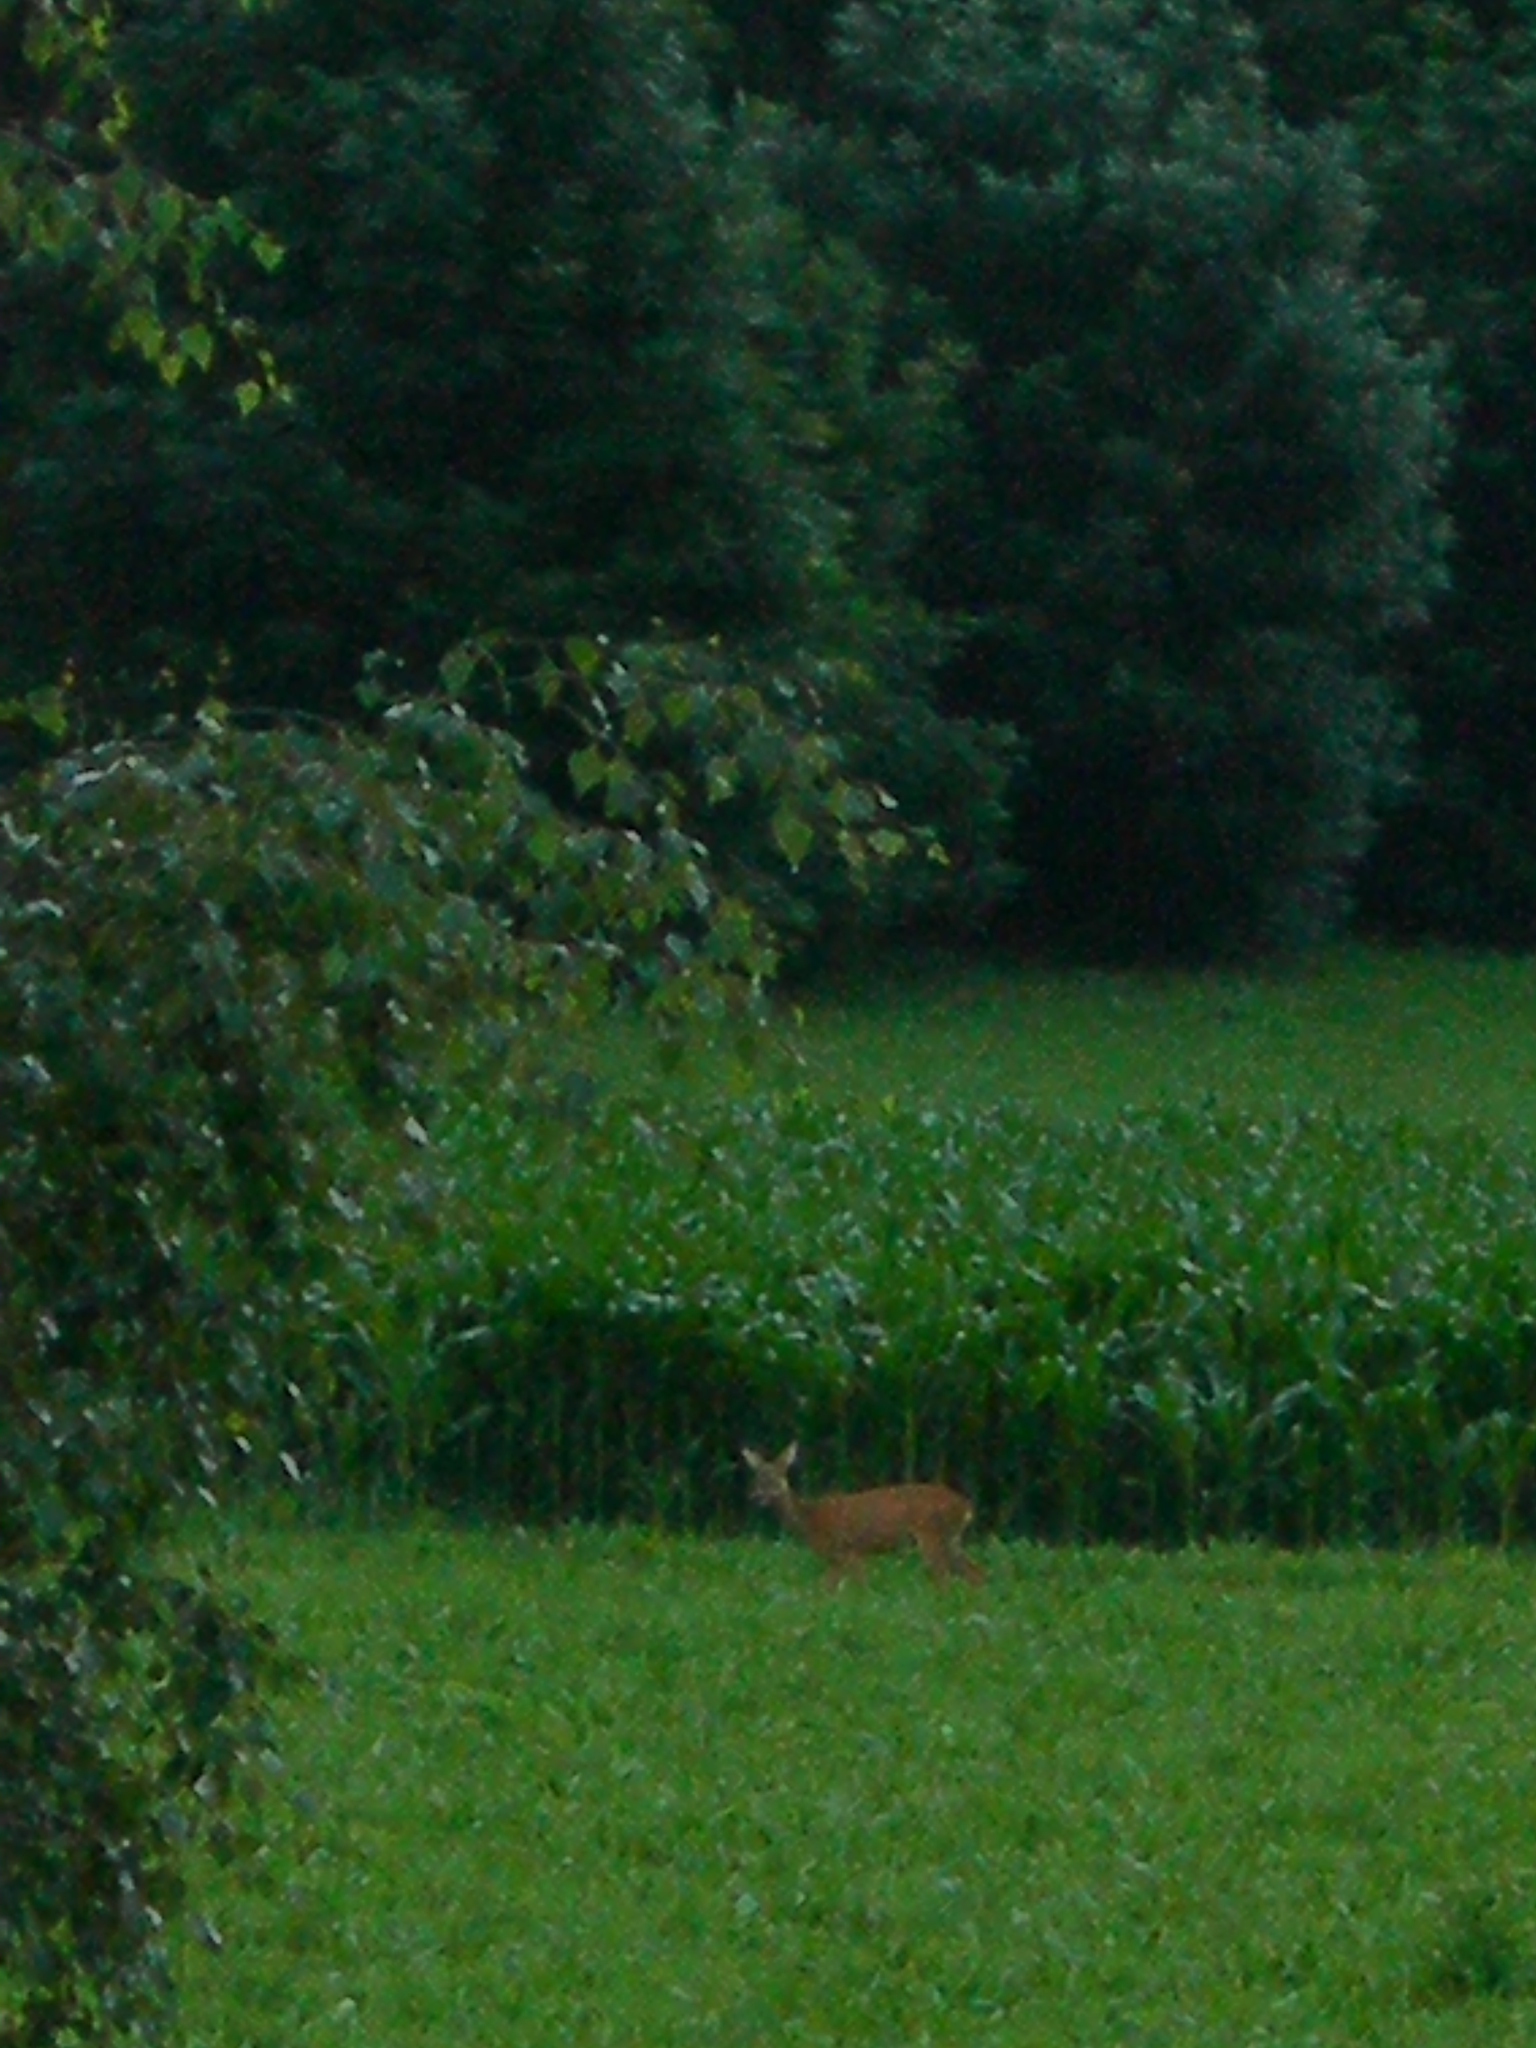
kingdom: Animalia
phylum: Chordata
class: Mammalia
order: Artiodactyla
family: Cervidae
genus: Capreolus
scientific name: Capreolus capreolus
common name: Western roe deer
